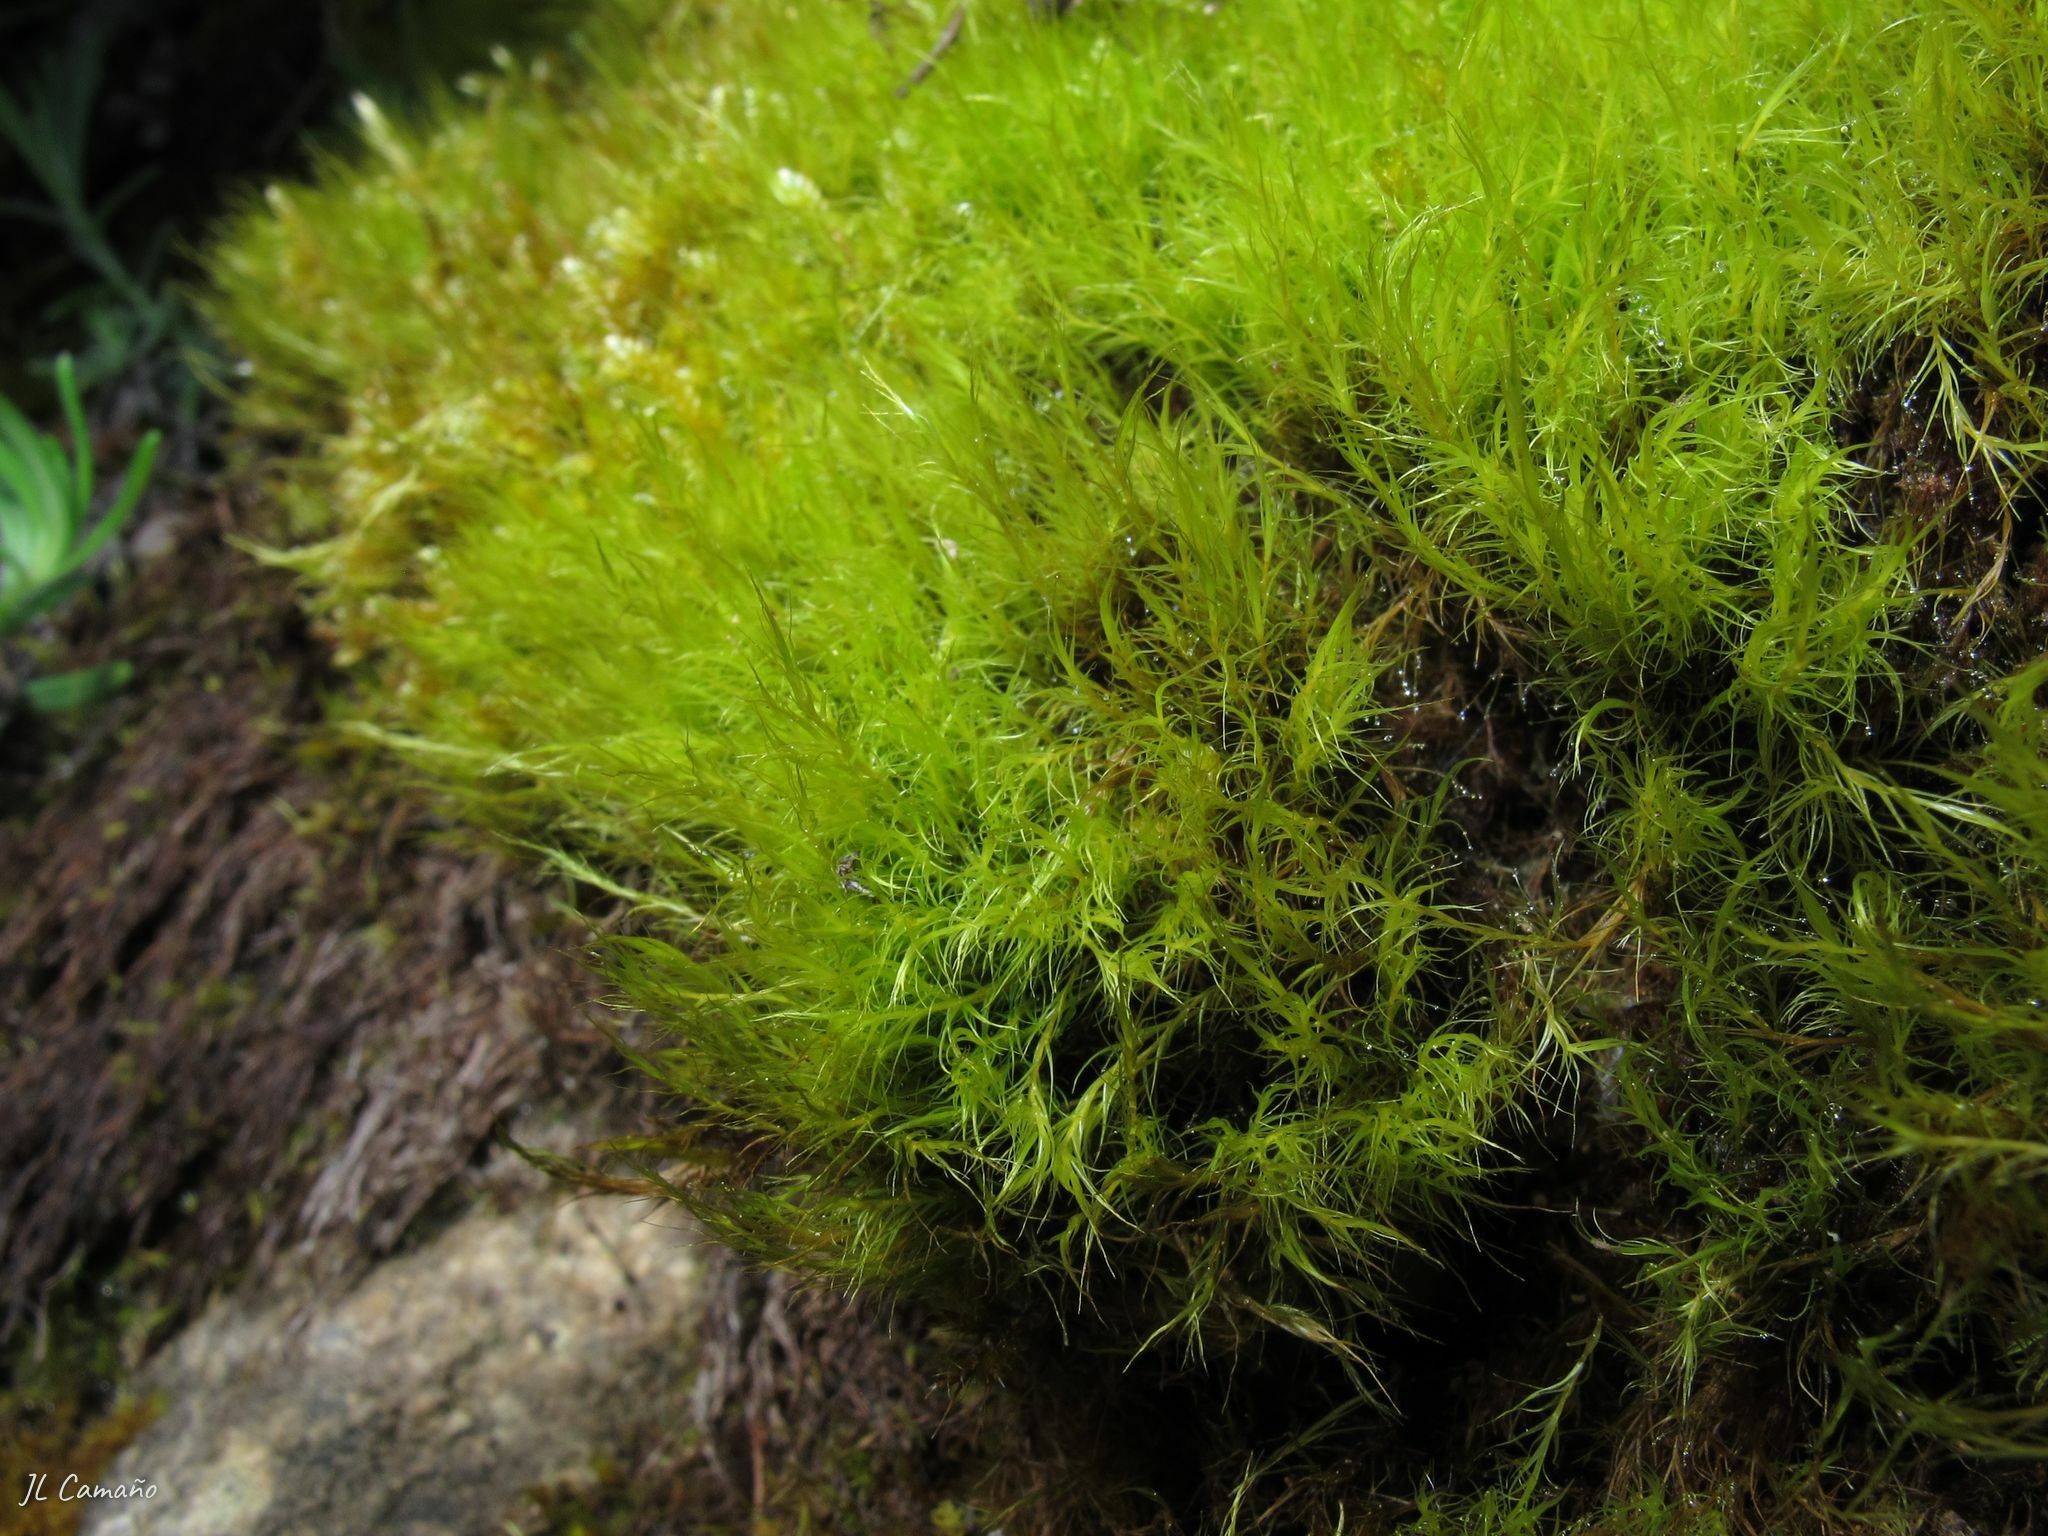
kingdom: Plantae
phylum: Bryophyta
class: Bryopsida
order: Scouleriales
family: Flexitrichaceae
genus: Flexitrichum
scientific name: Flexitrichum gracile
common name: Slender ditrichum
